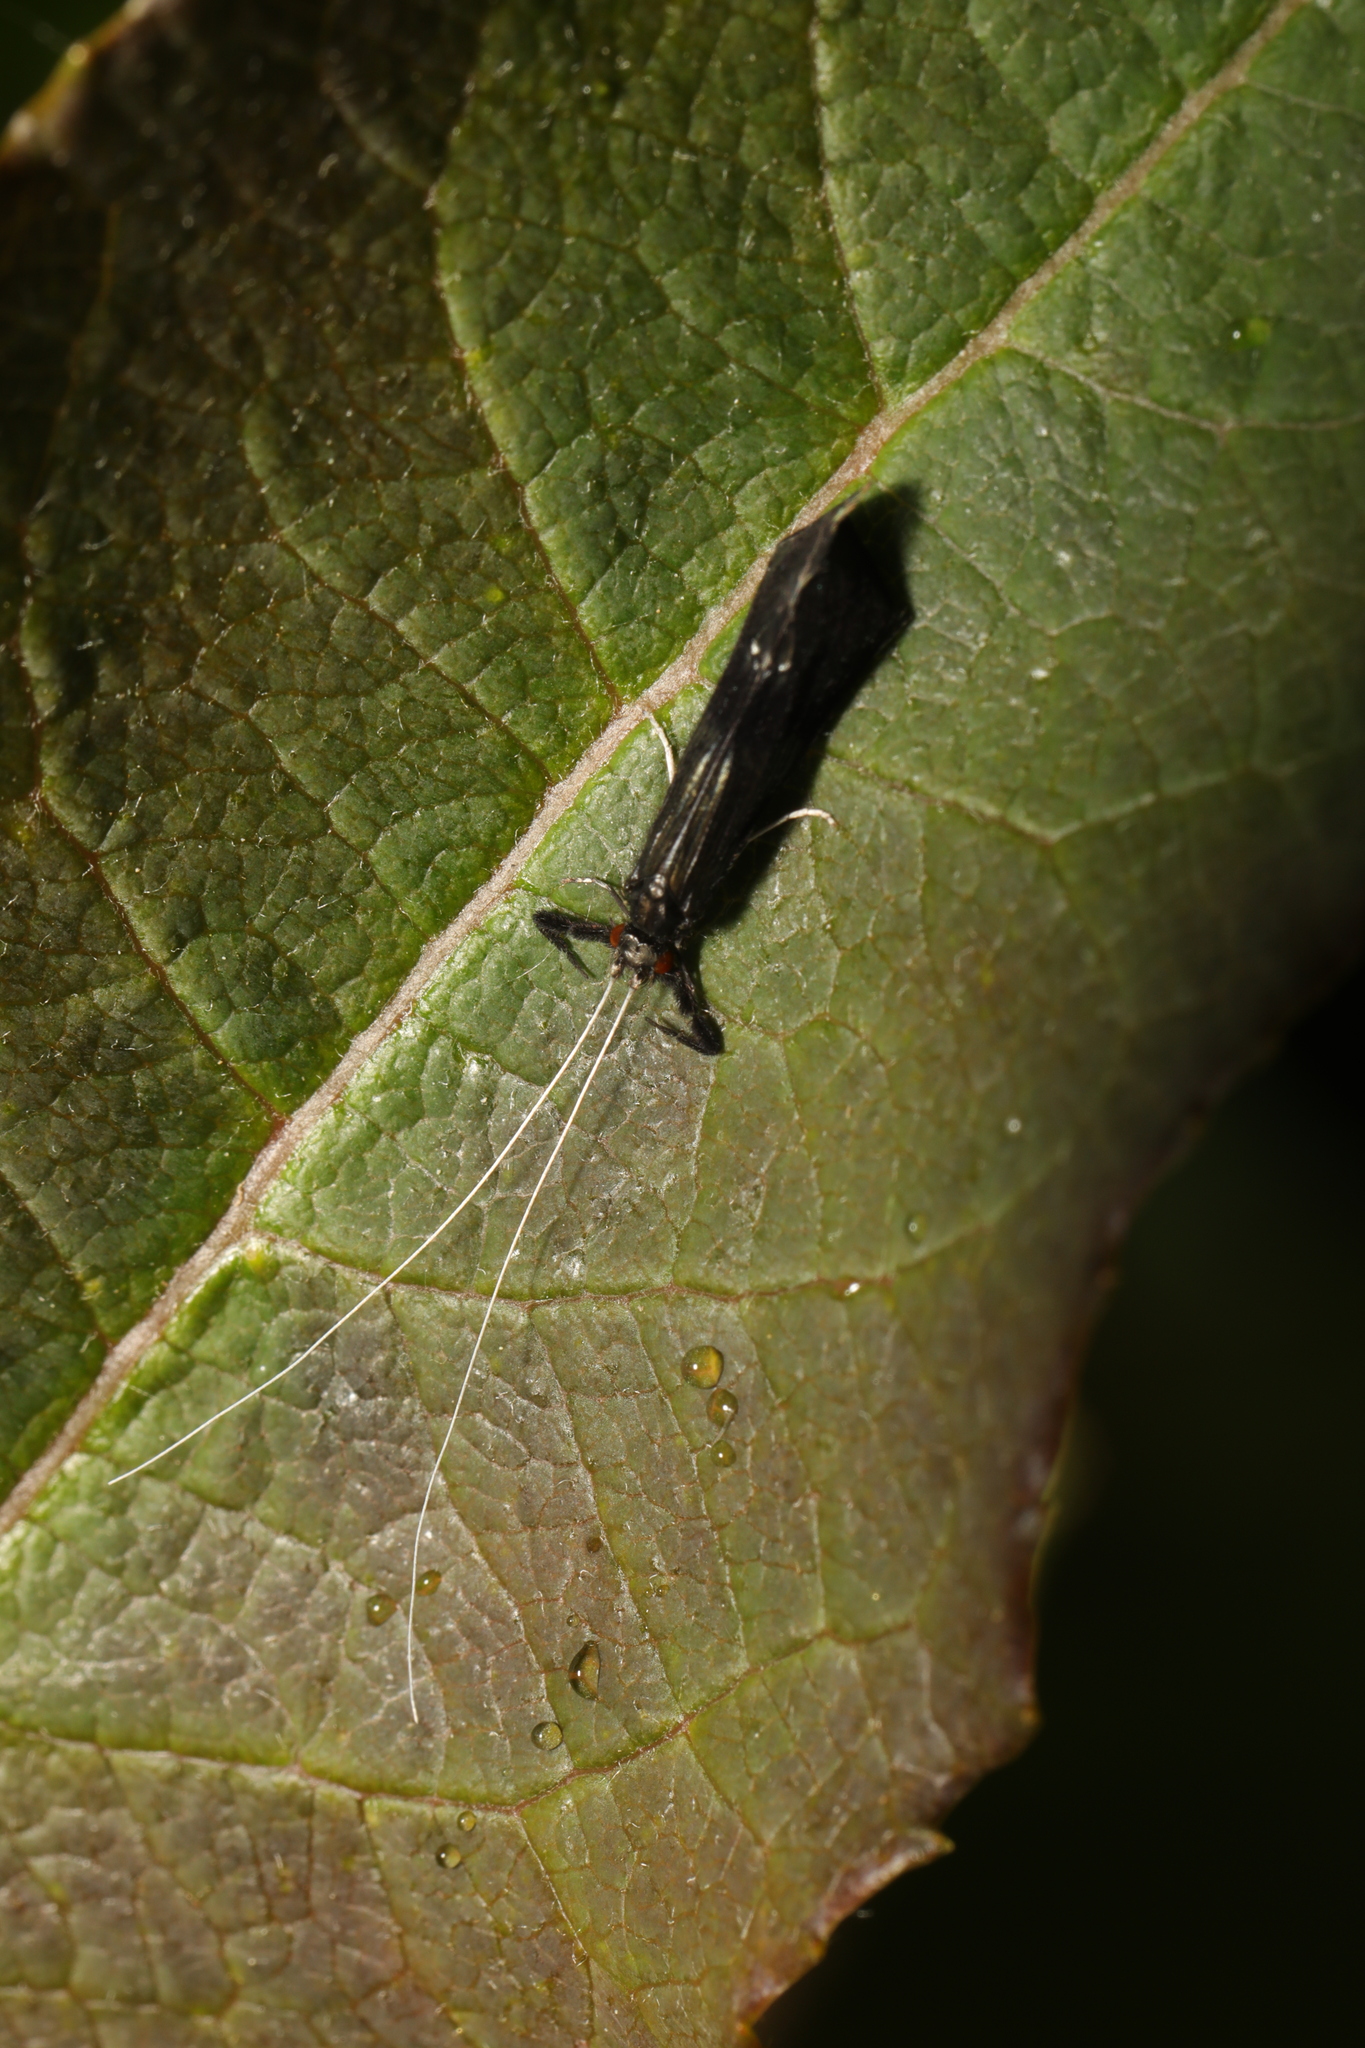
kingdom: Animalia
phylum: Arthropoda
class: Insecta
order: Trichoptera
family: Leptoceridae
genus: Mystacides
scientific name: Mystacides azureus
